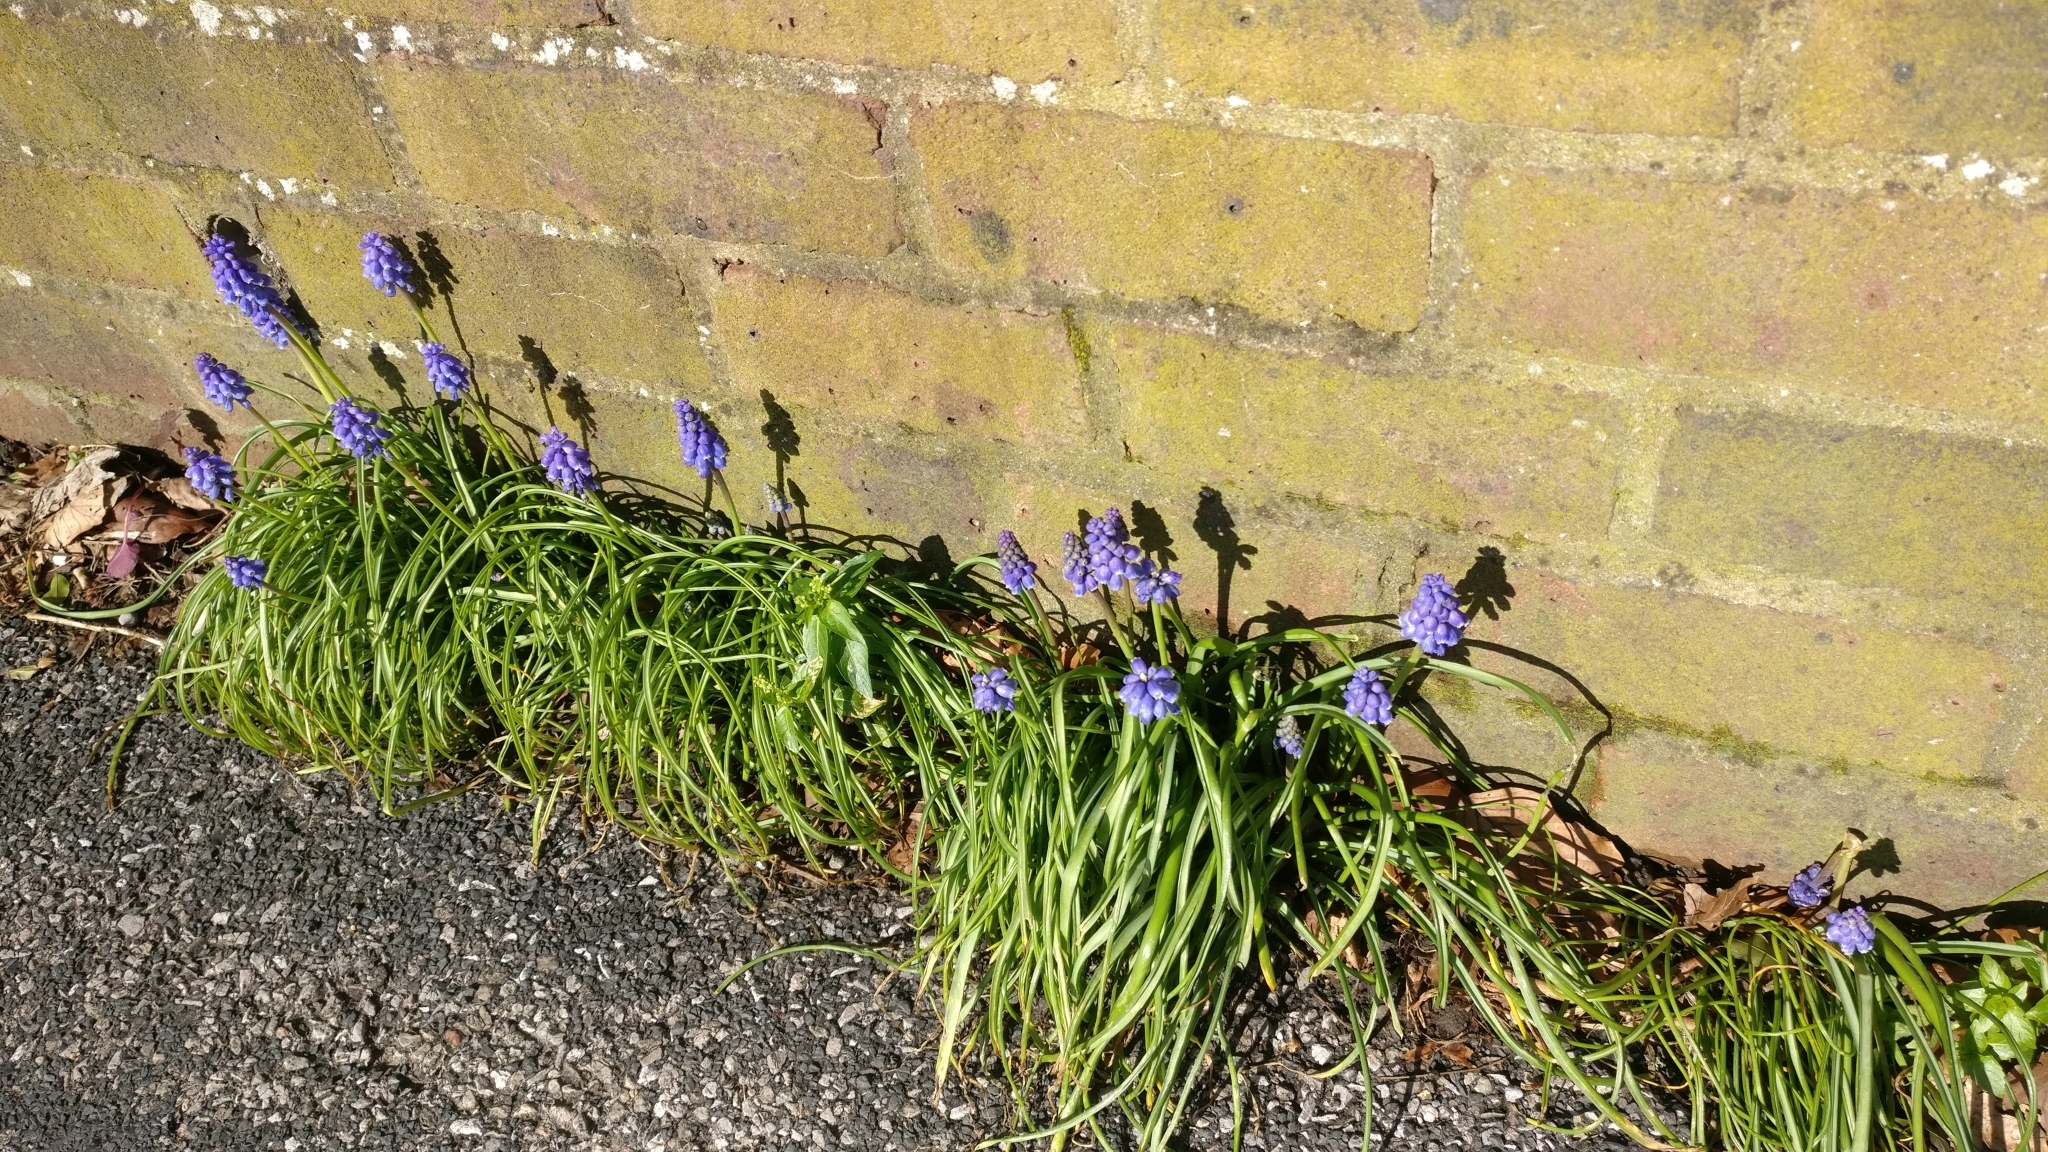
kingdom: Plantae
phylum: Tracheophyta
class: Liliopsida
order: Asparagales
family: Asparagaceae
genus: Muscari
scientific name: Muscari armeniacum
